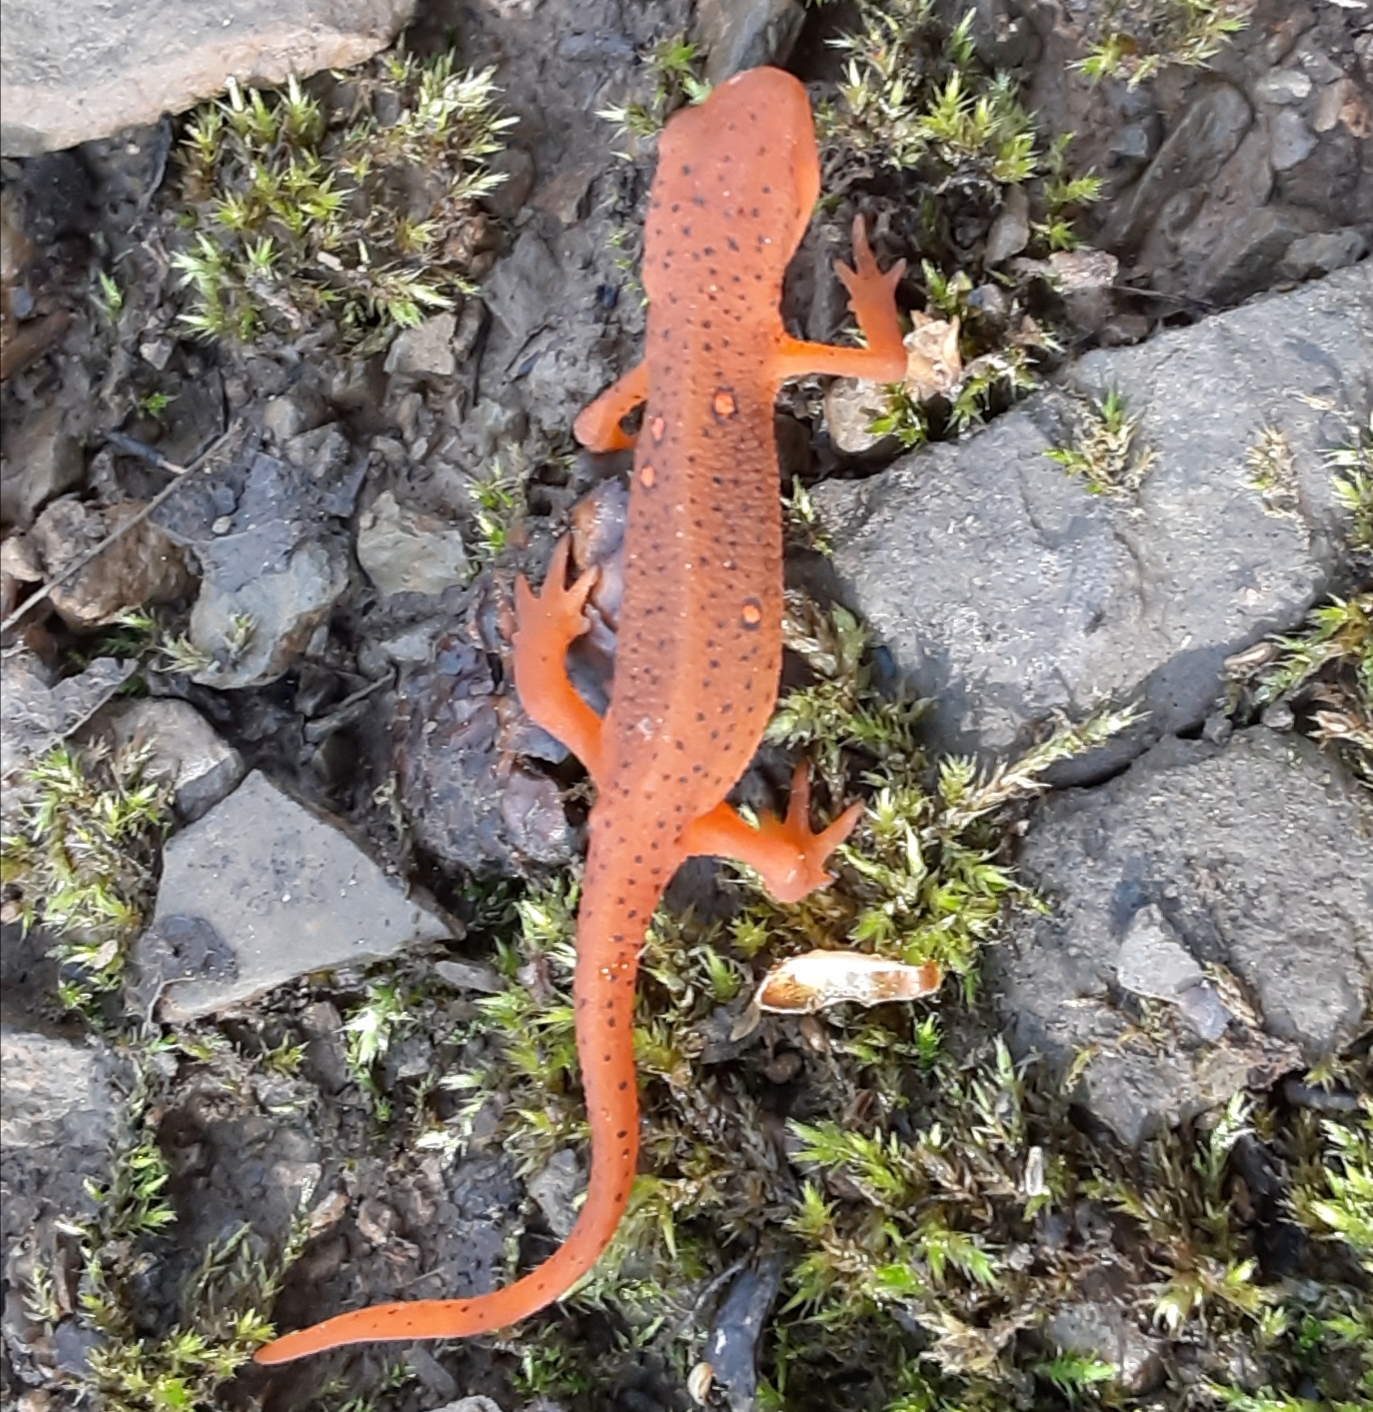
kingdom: Animalia
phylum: Chordata
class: Amphibia
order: Caudata
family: Salamandridae
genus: Notophthalmus
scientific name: Notophthalmus viridescens
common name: Eastern newt
